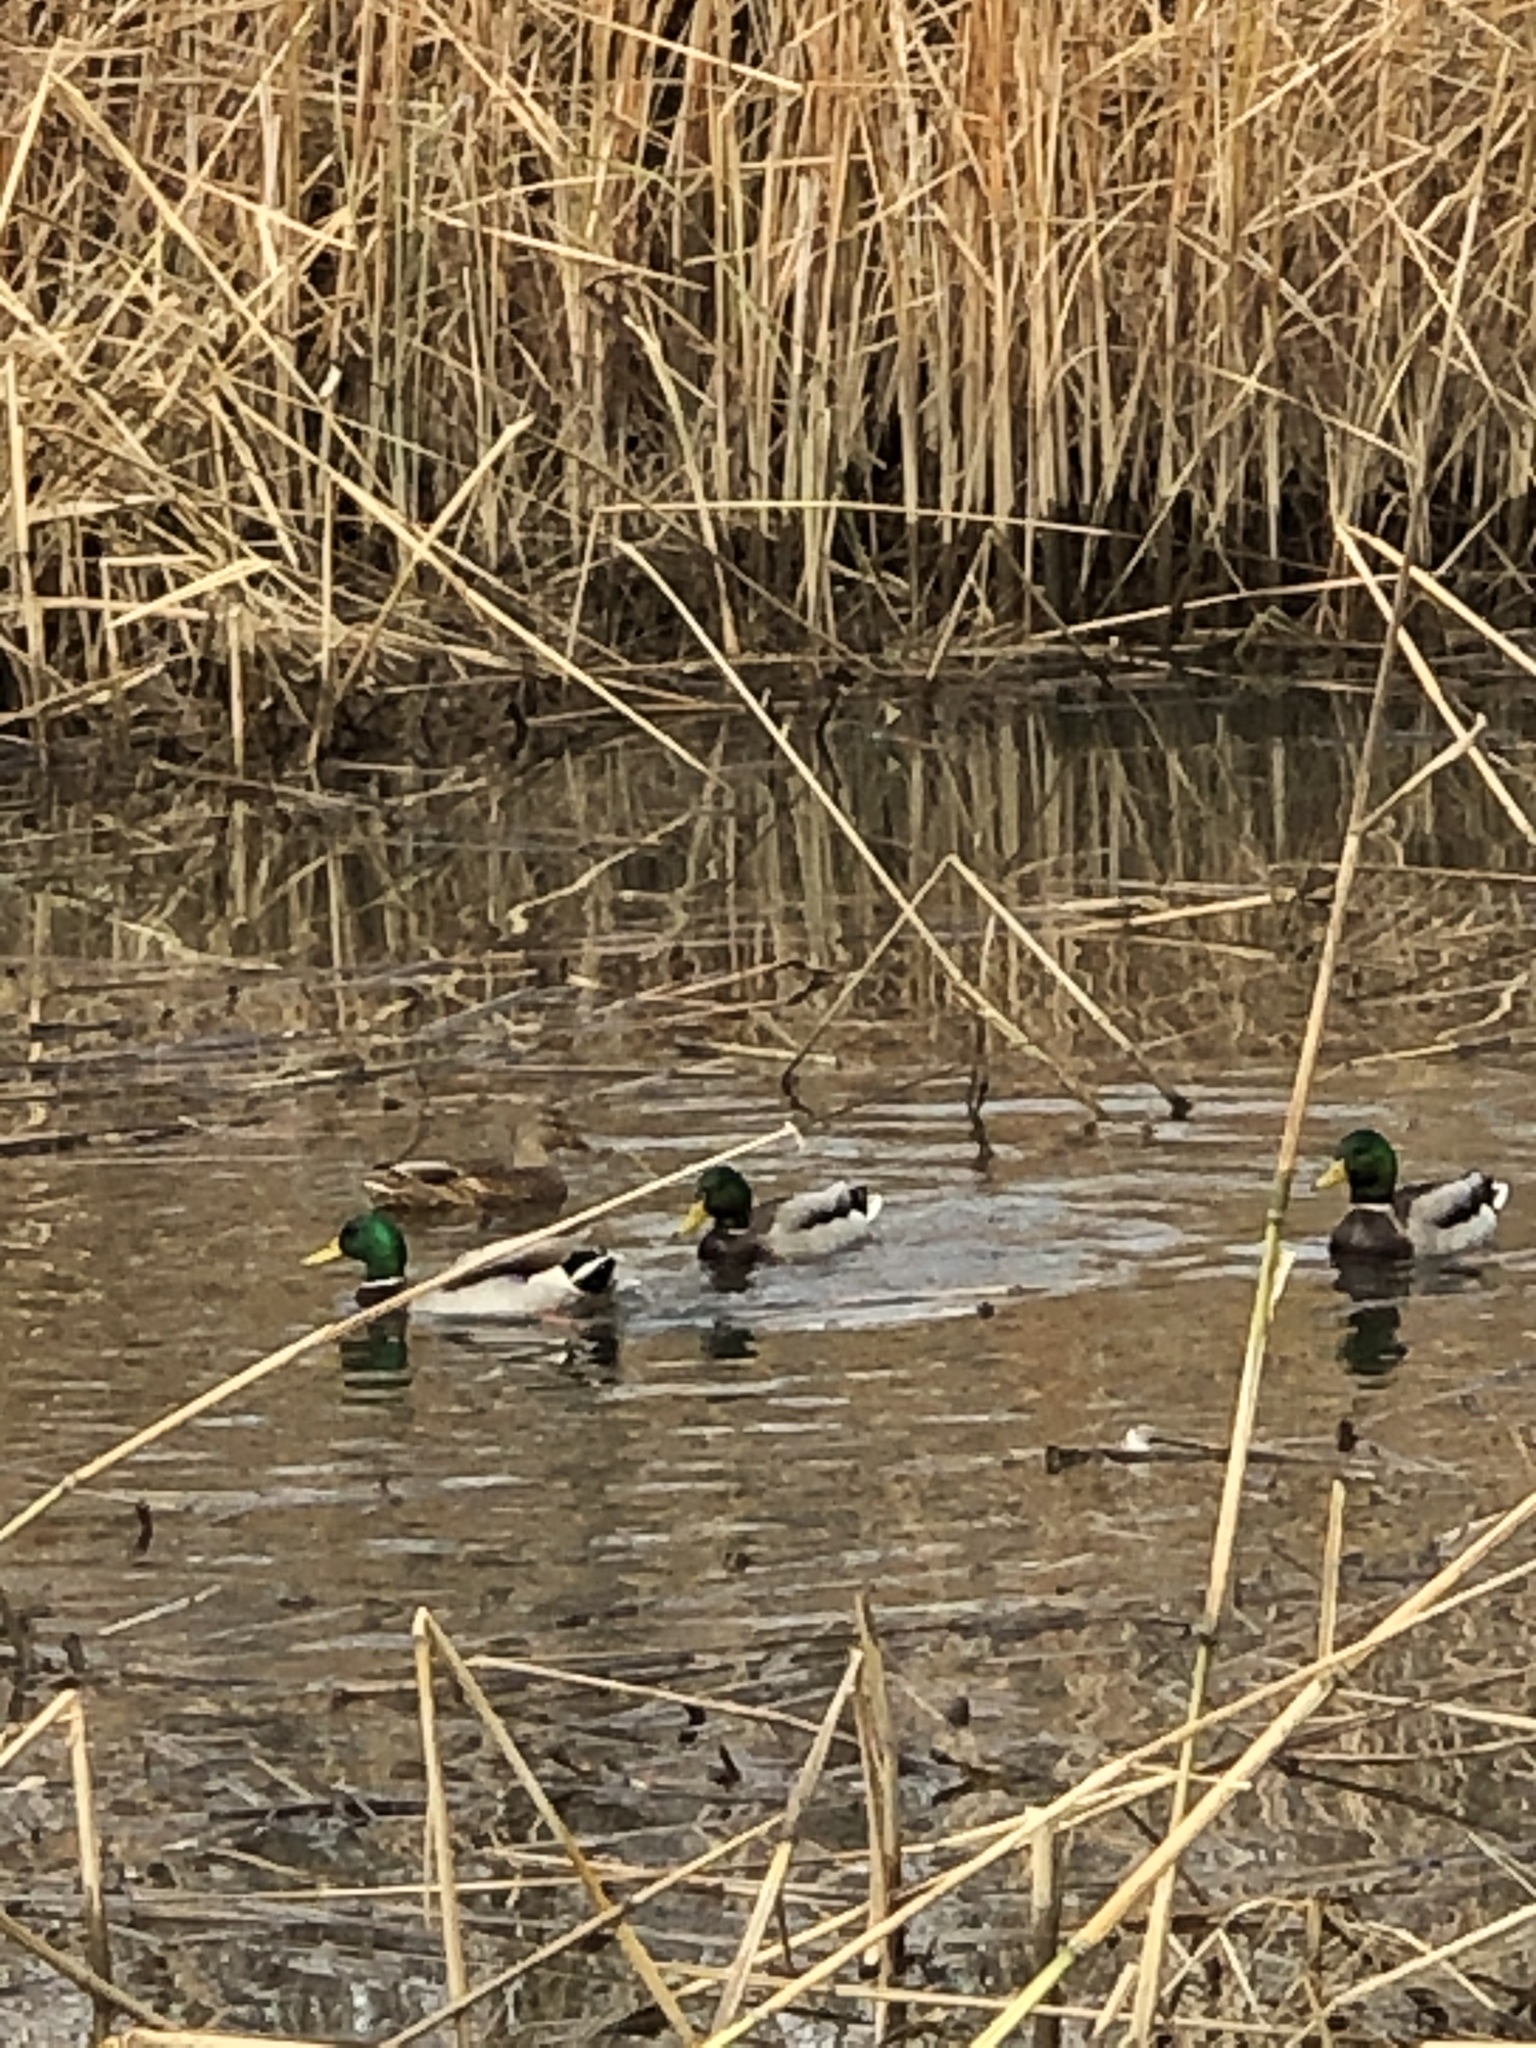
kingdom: Animalia
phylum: Chordata
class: Aves
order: Anseriformes
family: Anatidae
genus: Anas
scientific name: Anas platyrhynchos
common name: Mallard
